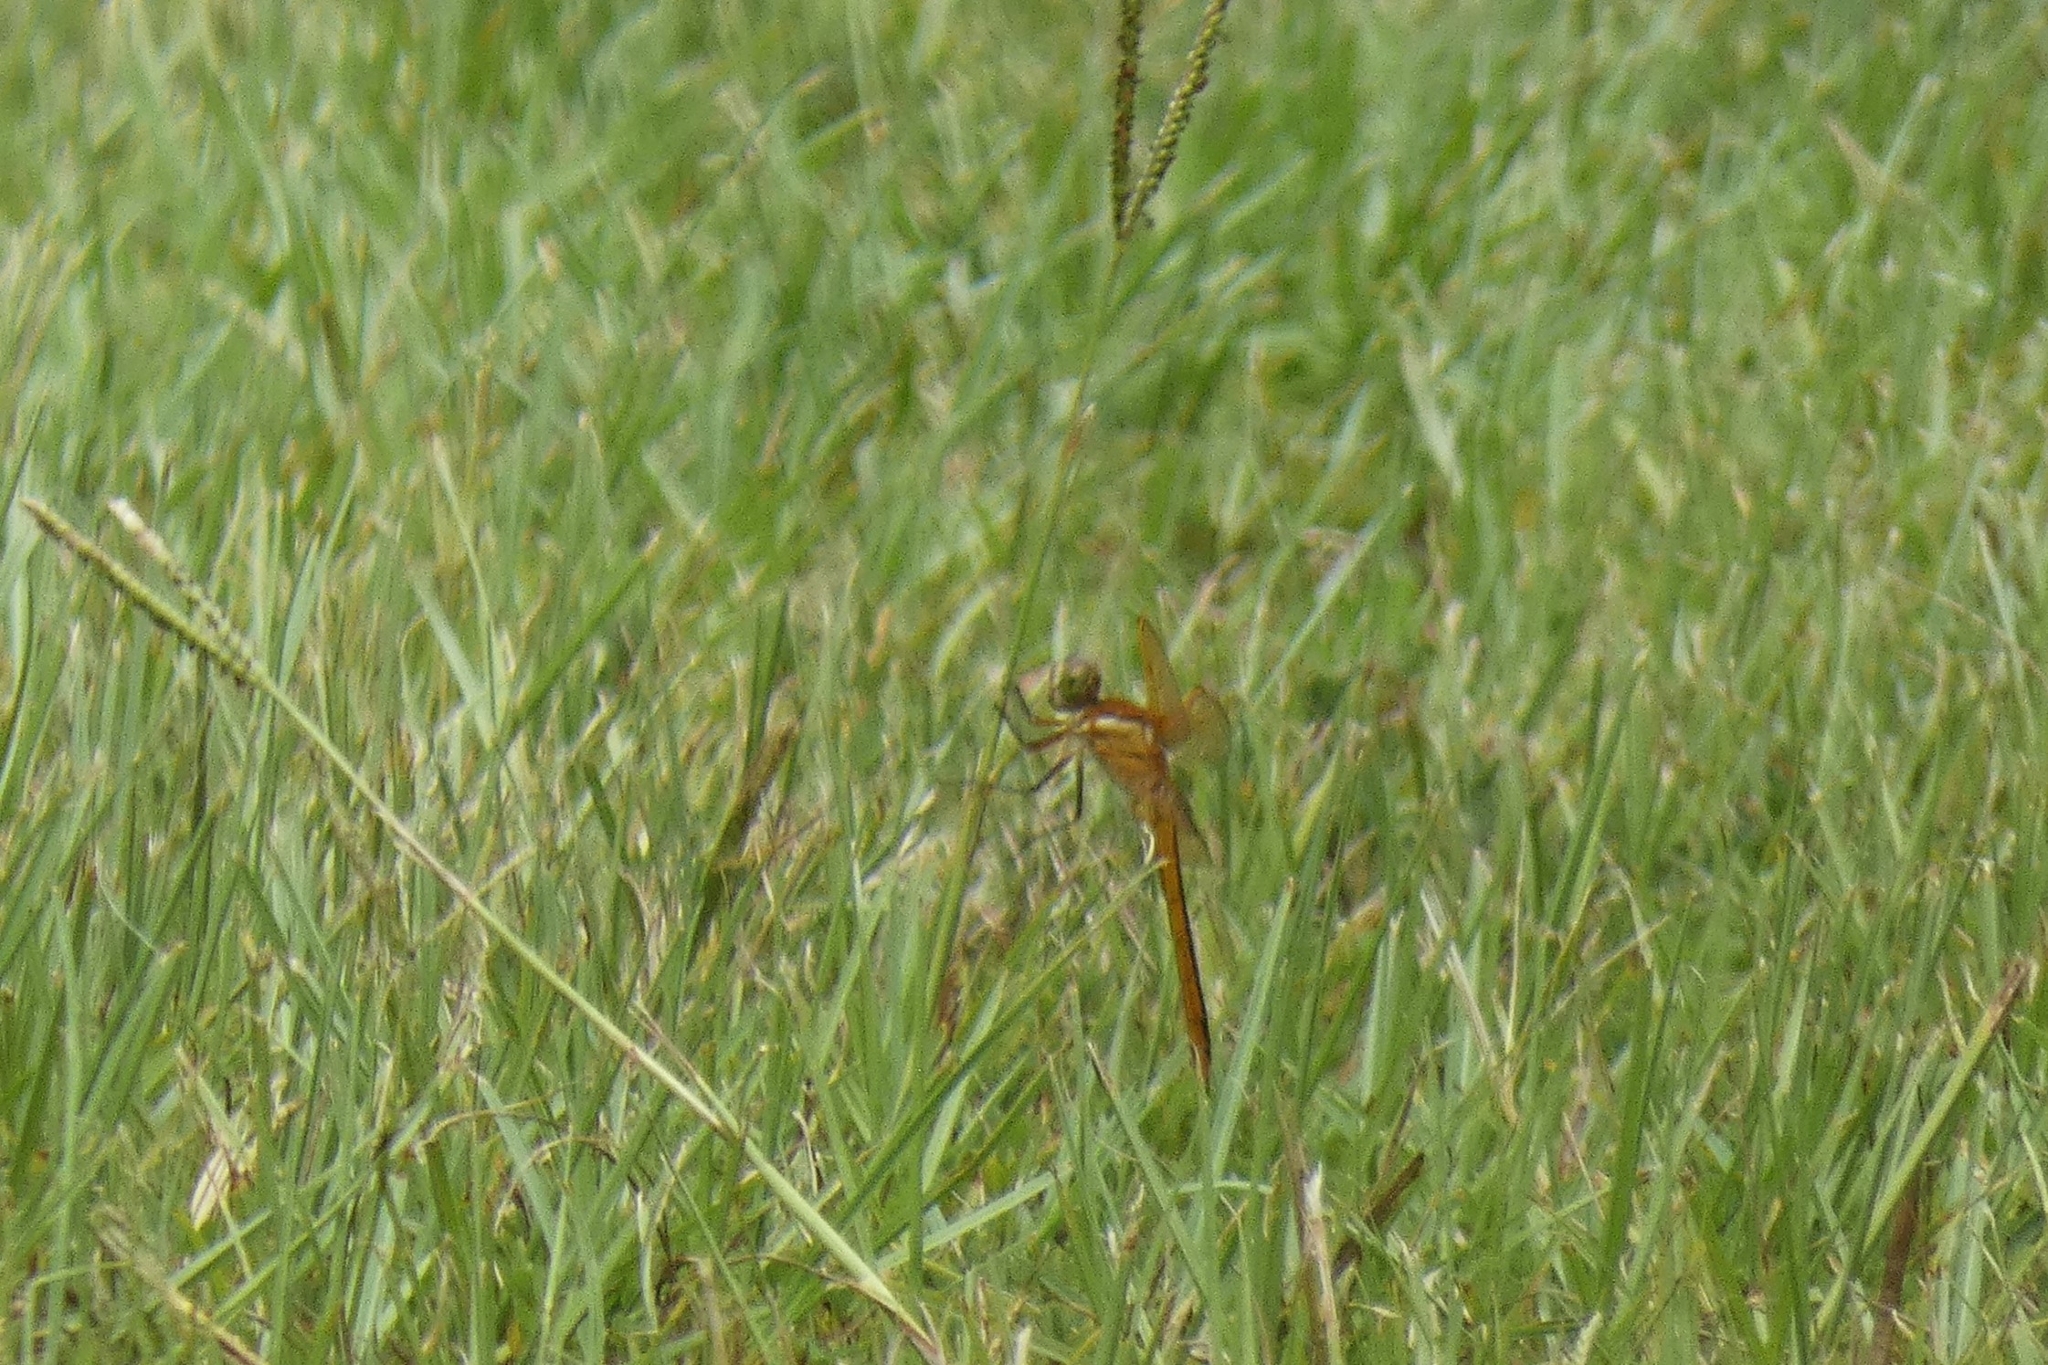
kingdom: Animalia
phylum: Arthropoda
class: Insecta
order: Odonata
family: Libellulidae
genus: Libellula
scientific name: Libellula auripennis
